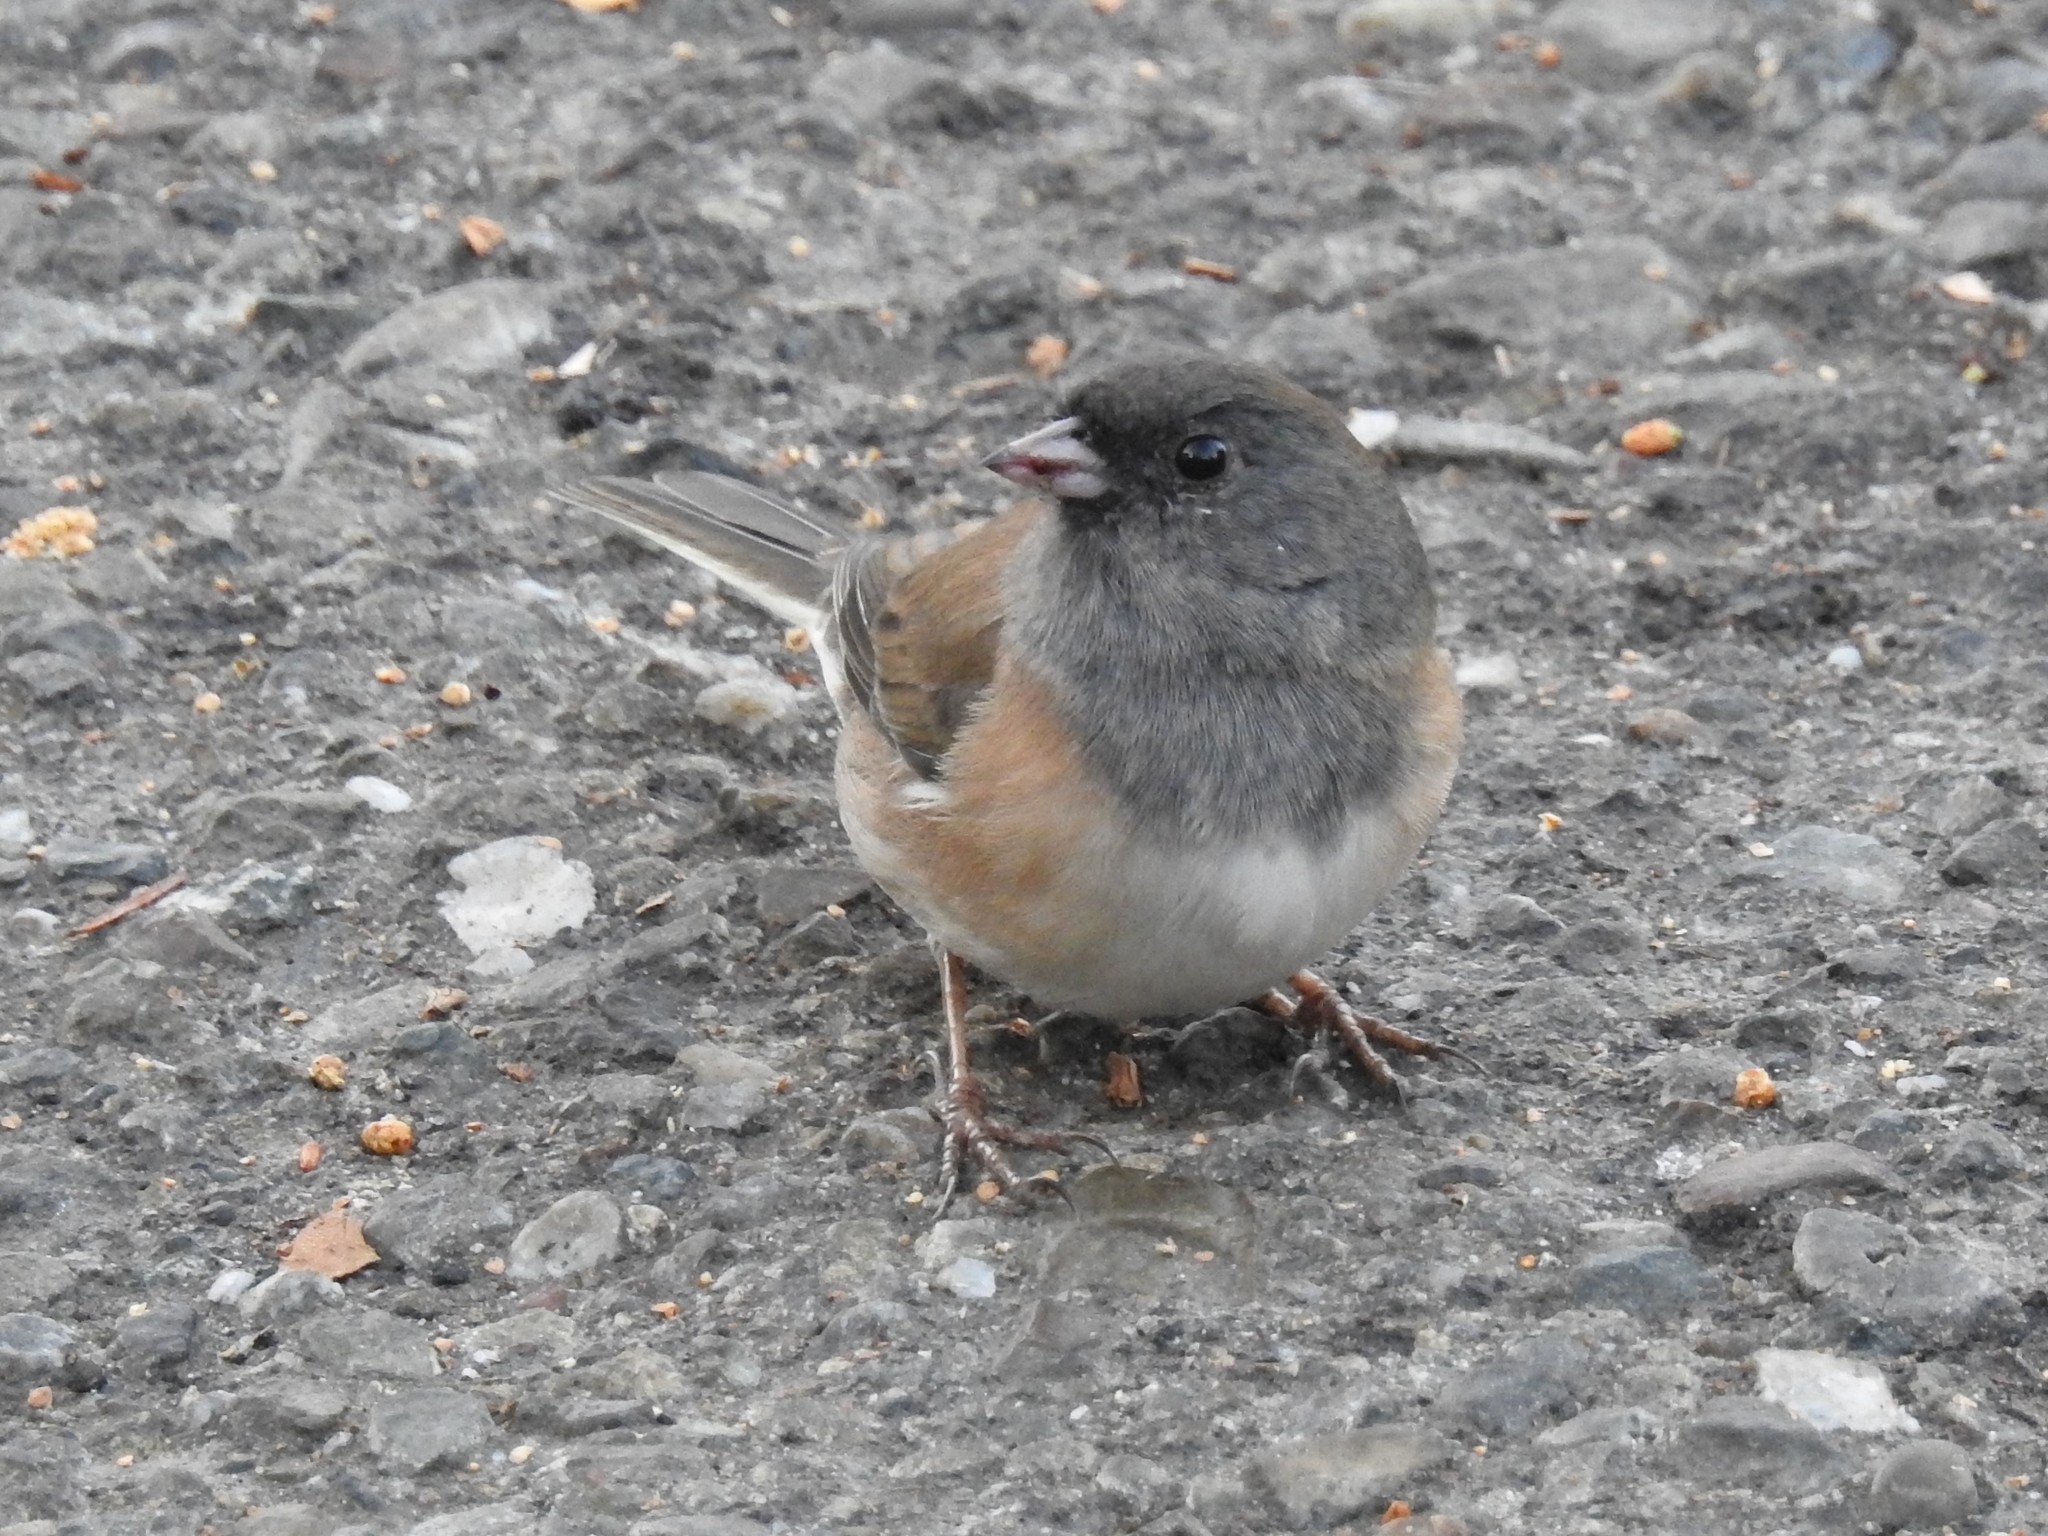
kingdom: Animalia
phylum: Chordata
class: Aves
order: Passeriformes
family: Passerellidae
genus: Junco
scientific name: Junco hyemalis
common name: Dark-eyed junco
